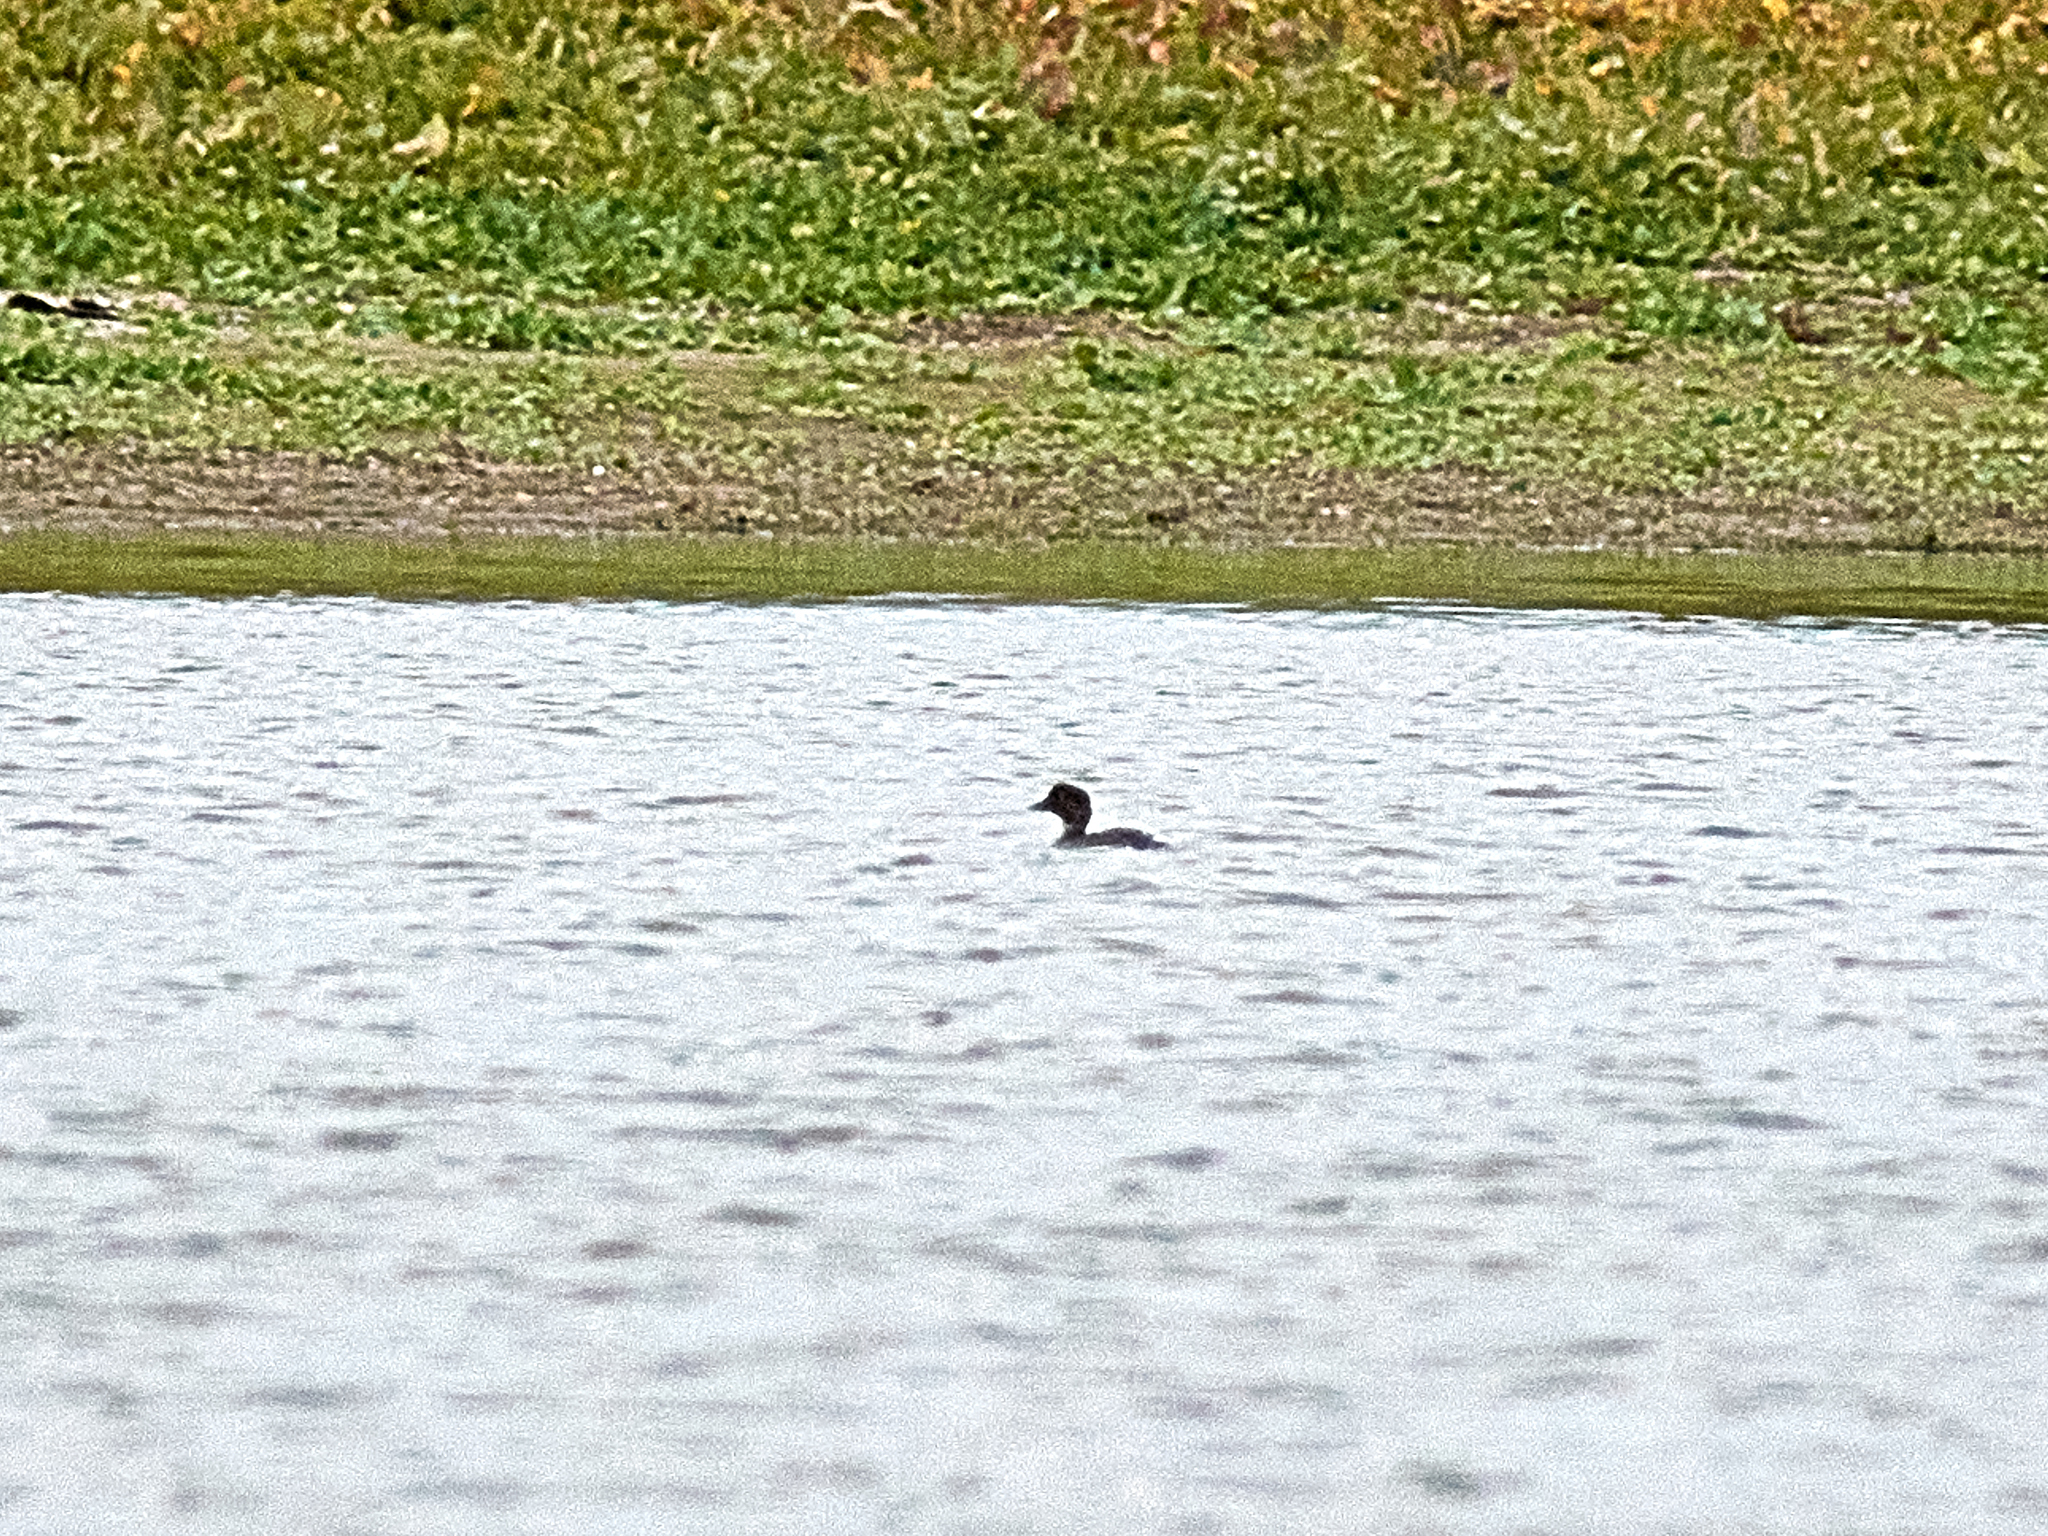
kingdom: Animalia
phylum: Chordata
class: Aves
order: Anseriformes
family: Anatidae
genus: Bucephala
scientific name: Bucephala clangula
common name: Common goldeneye
